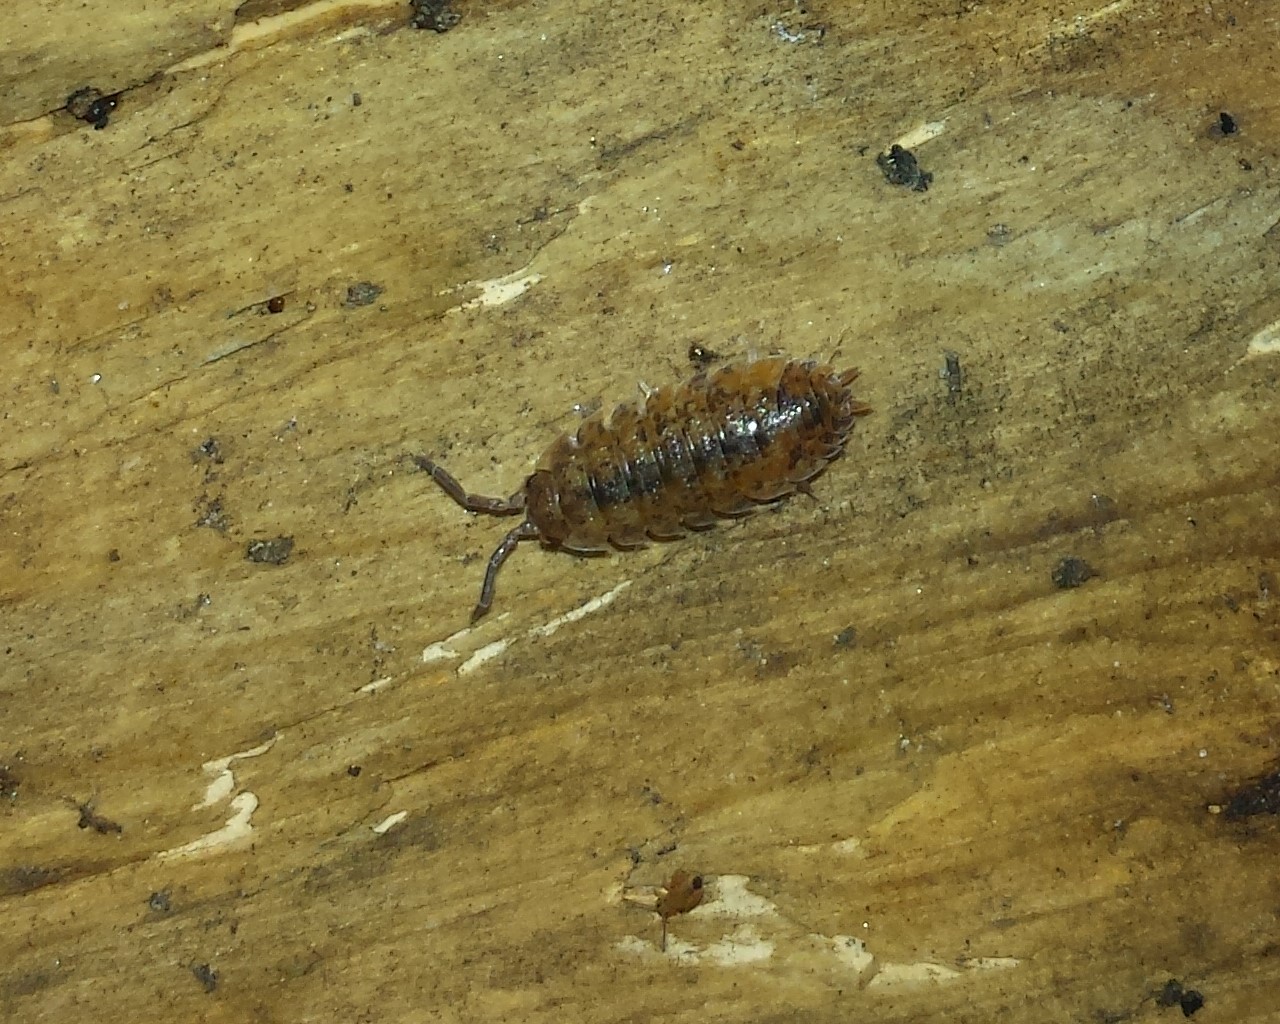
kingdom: Animalia
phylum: Arthropoda
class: Malacostraca
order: Isopoda
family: Porcellionidae
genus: Porcellio
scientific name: Porcellio scaber
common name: Common rough woodlouse
